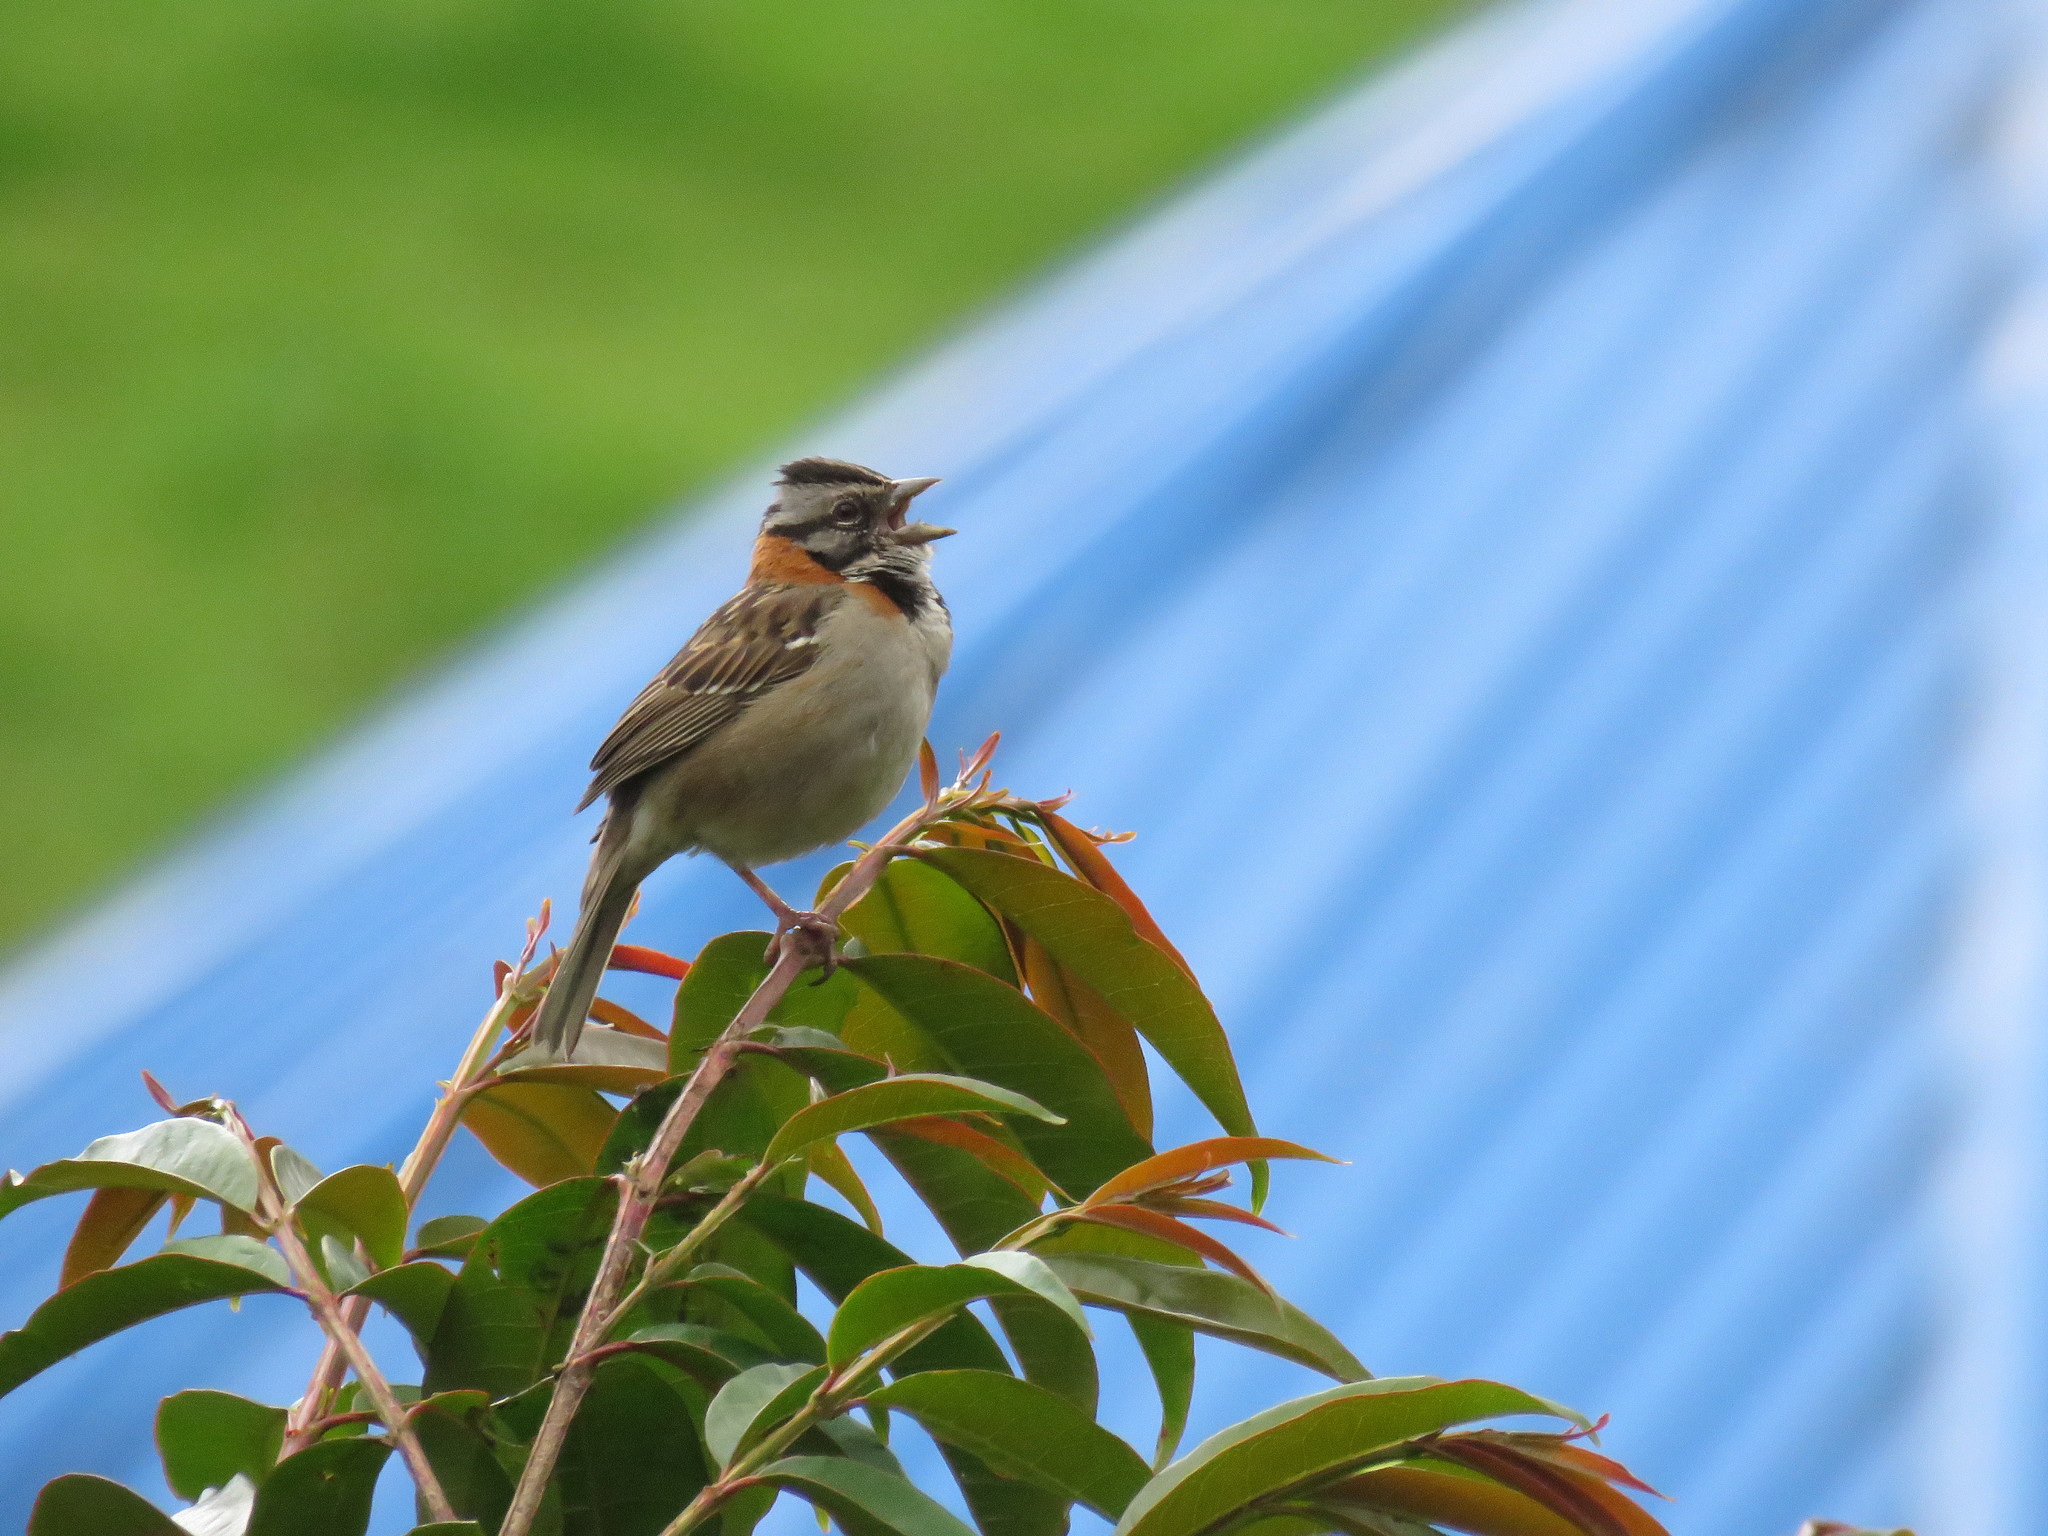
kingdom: Animalia
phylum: Chordata
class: Aves
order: Passeriformes
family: Passerellidae
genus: Zonotrichia
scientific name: Zonotrichia capensis
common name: Rufous-collared sparrow
